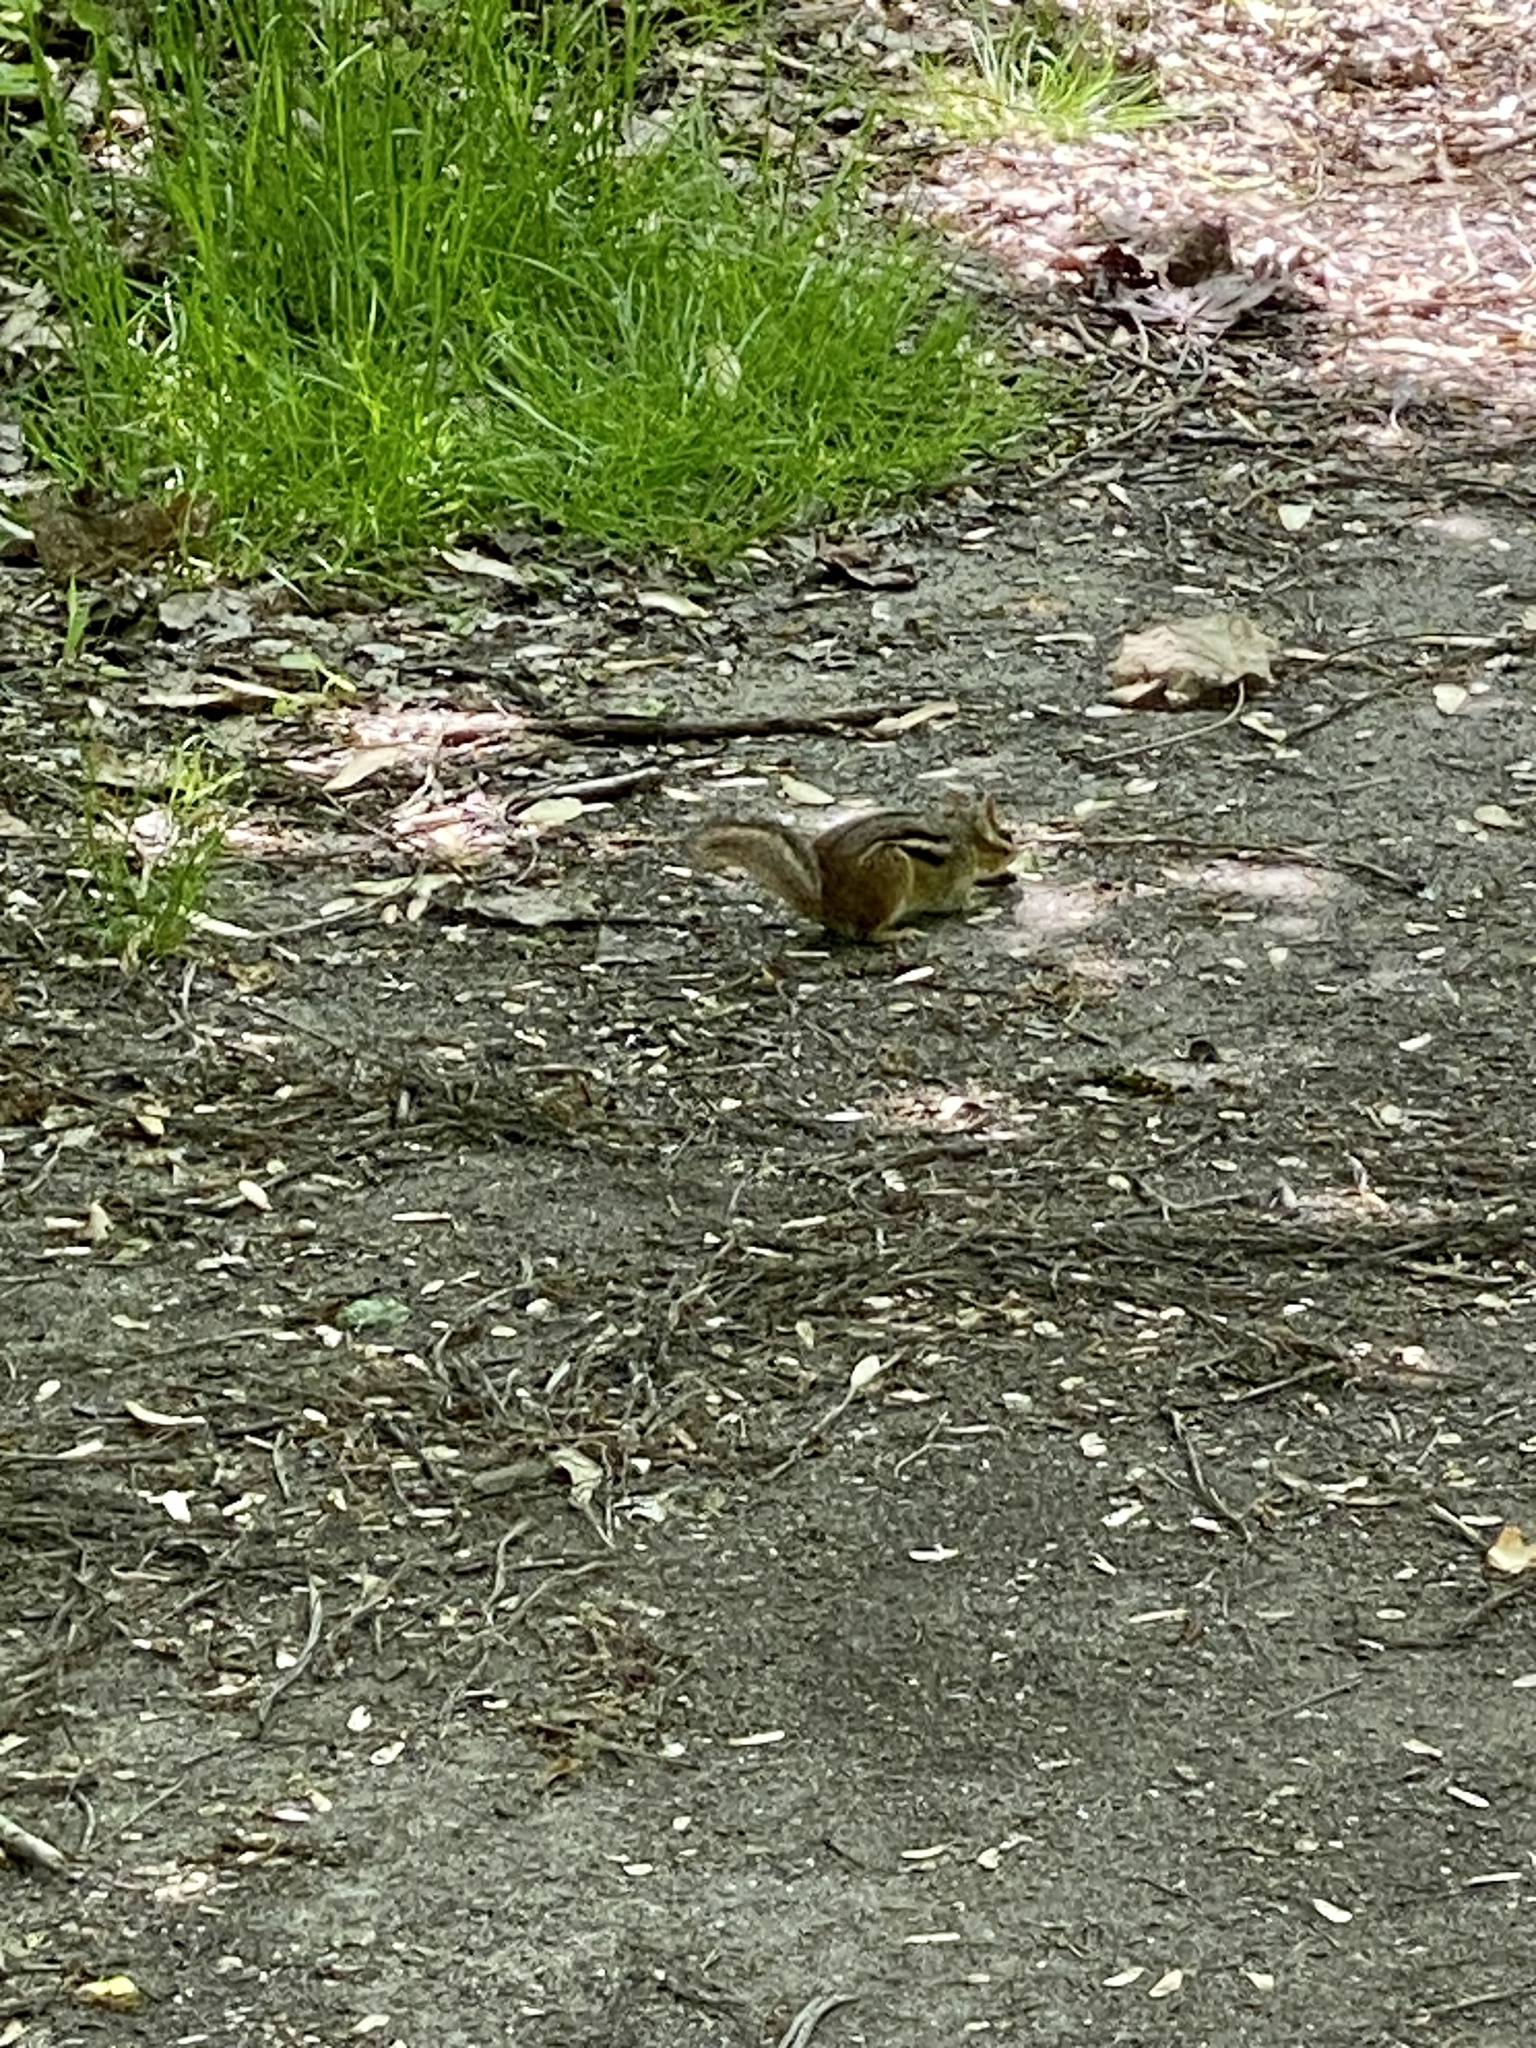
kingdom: Animalia
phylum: Chordata
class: Mammalia
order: Rodentia
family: Sciuridae
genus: Tamias
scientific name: Tamias striatus
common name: Eastern chipmunk
